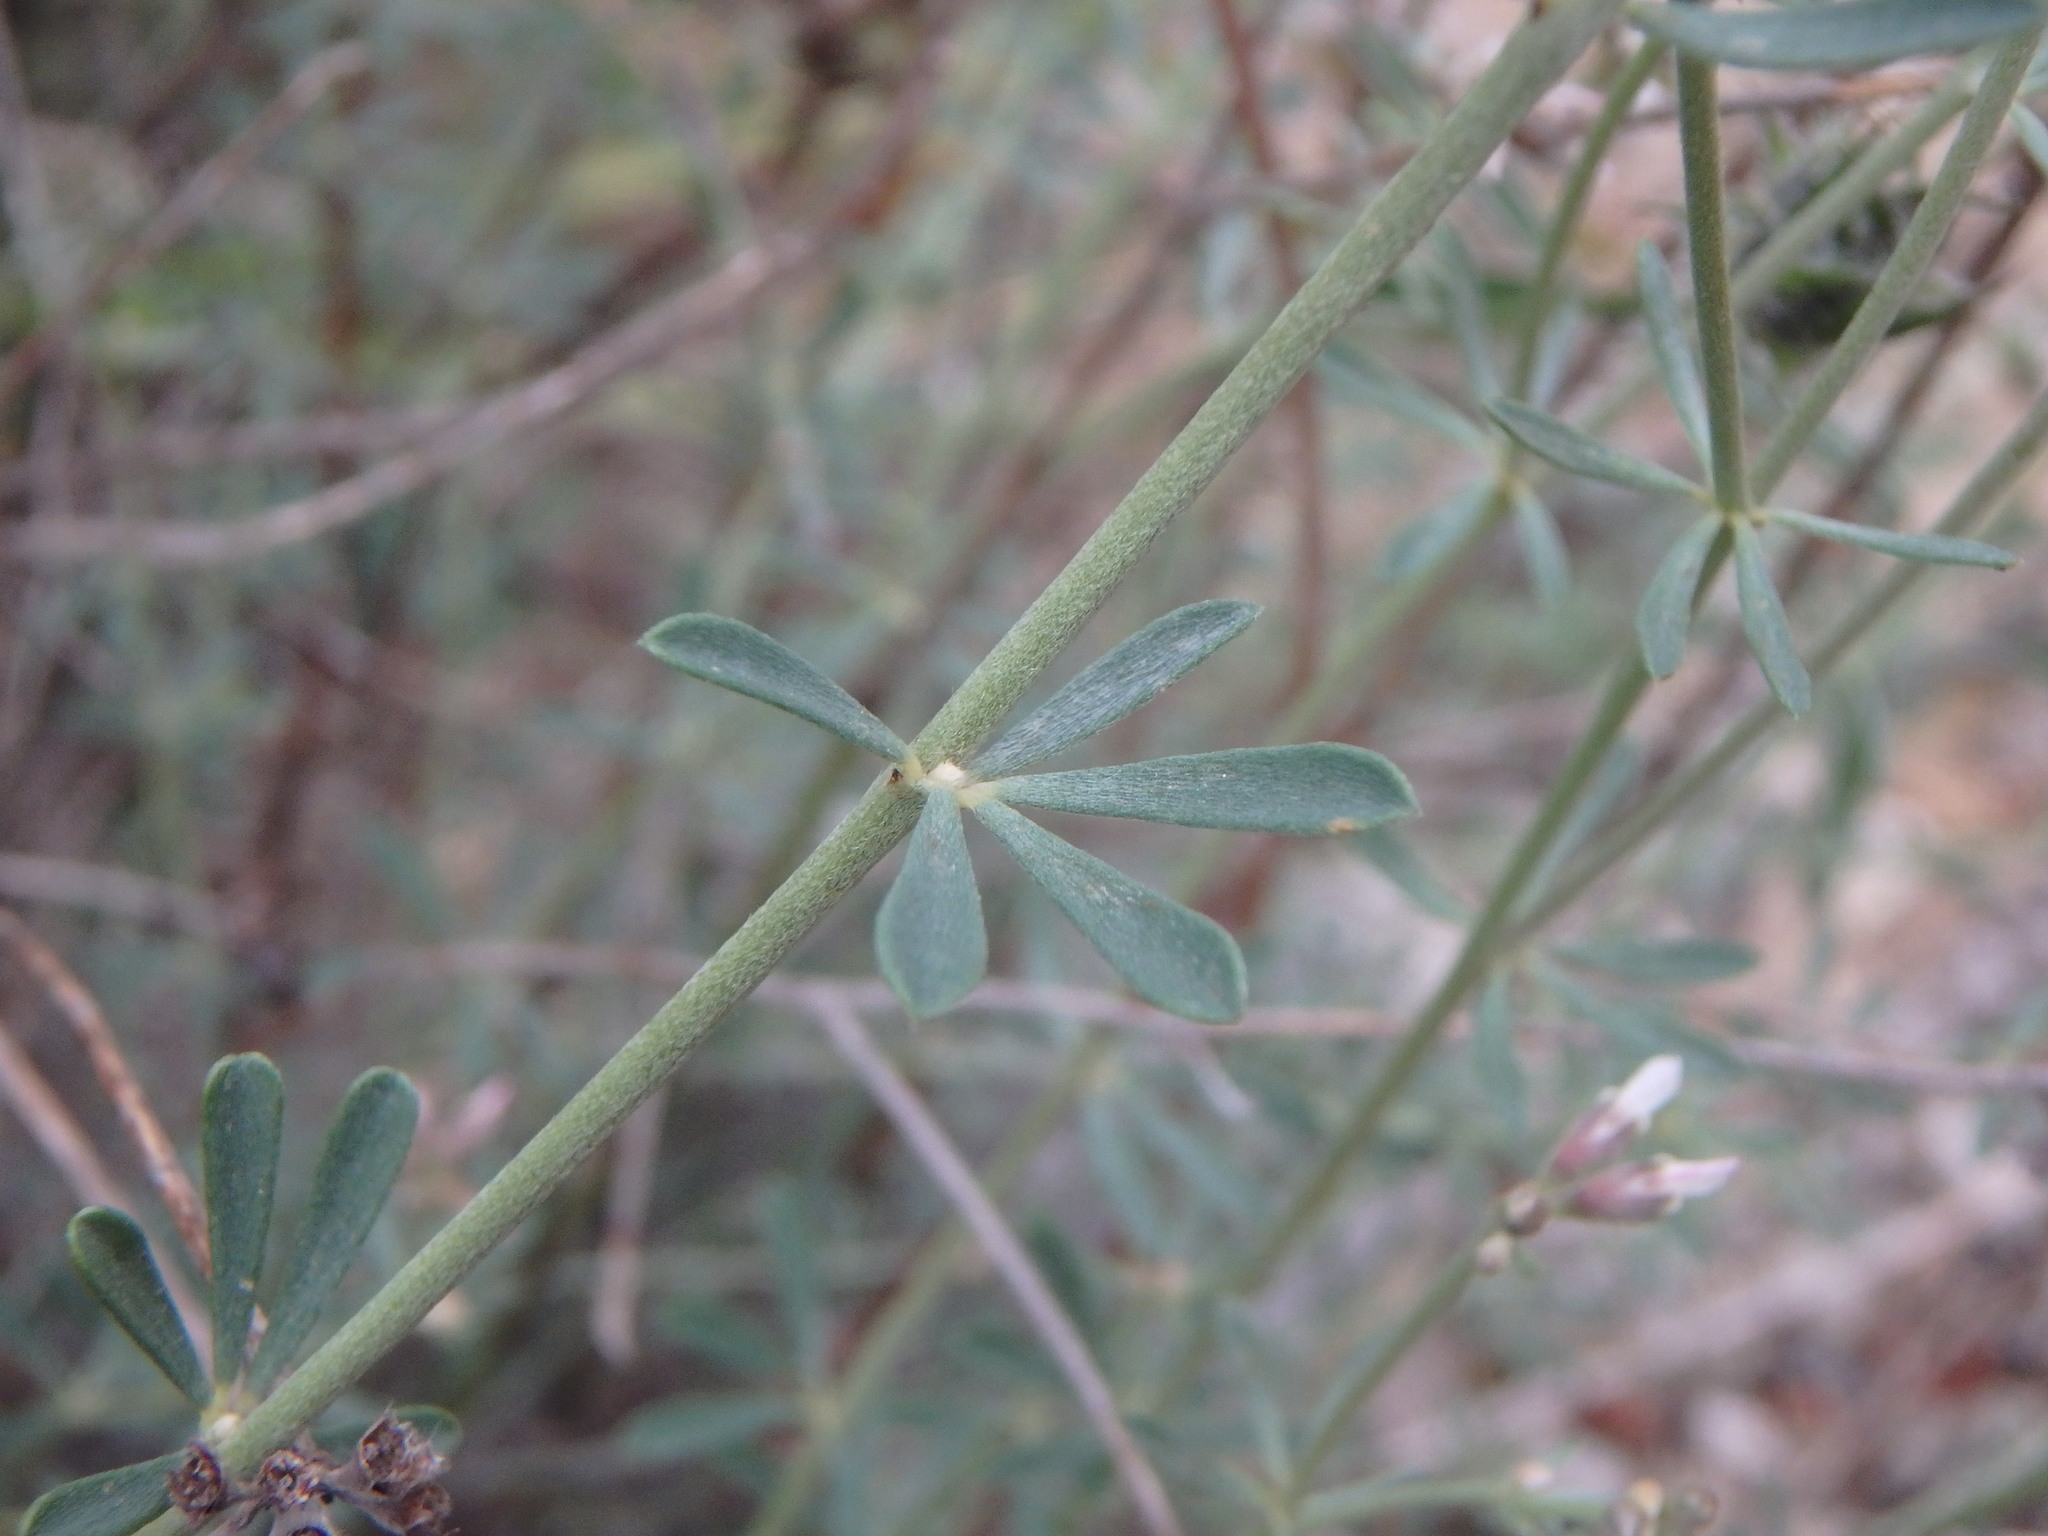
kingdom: Plantae
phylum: Tracheophyta
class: Magnoliopsida
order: Fabales
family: Fabaceae
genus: Lotus
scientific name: Lotus dorycnium
